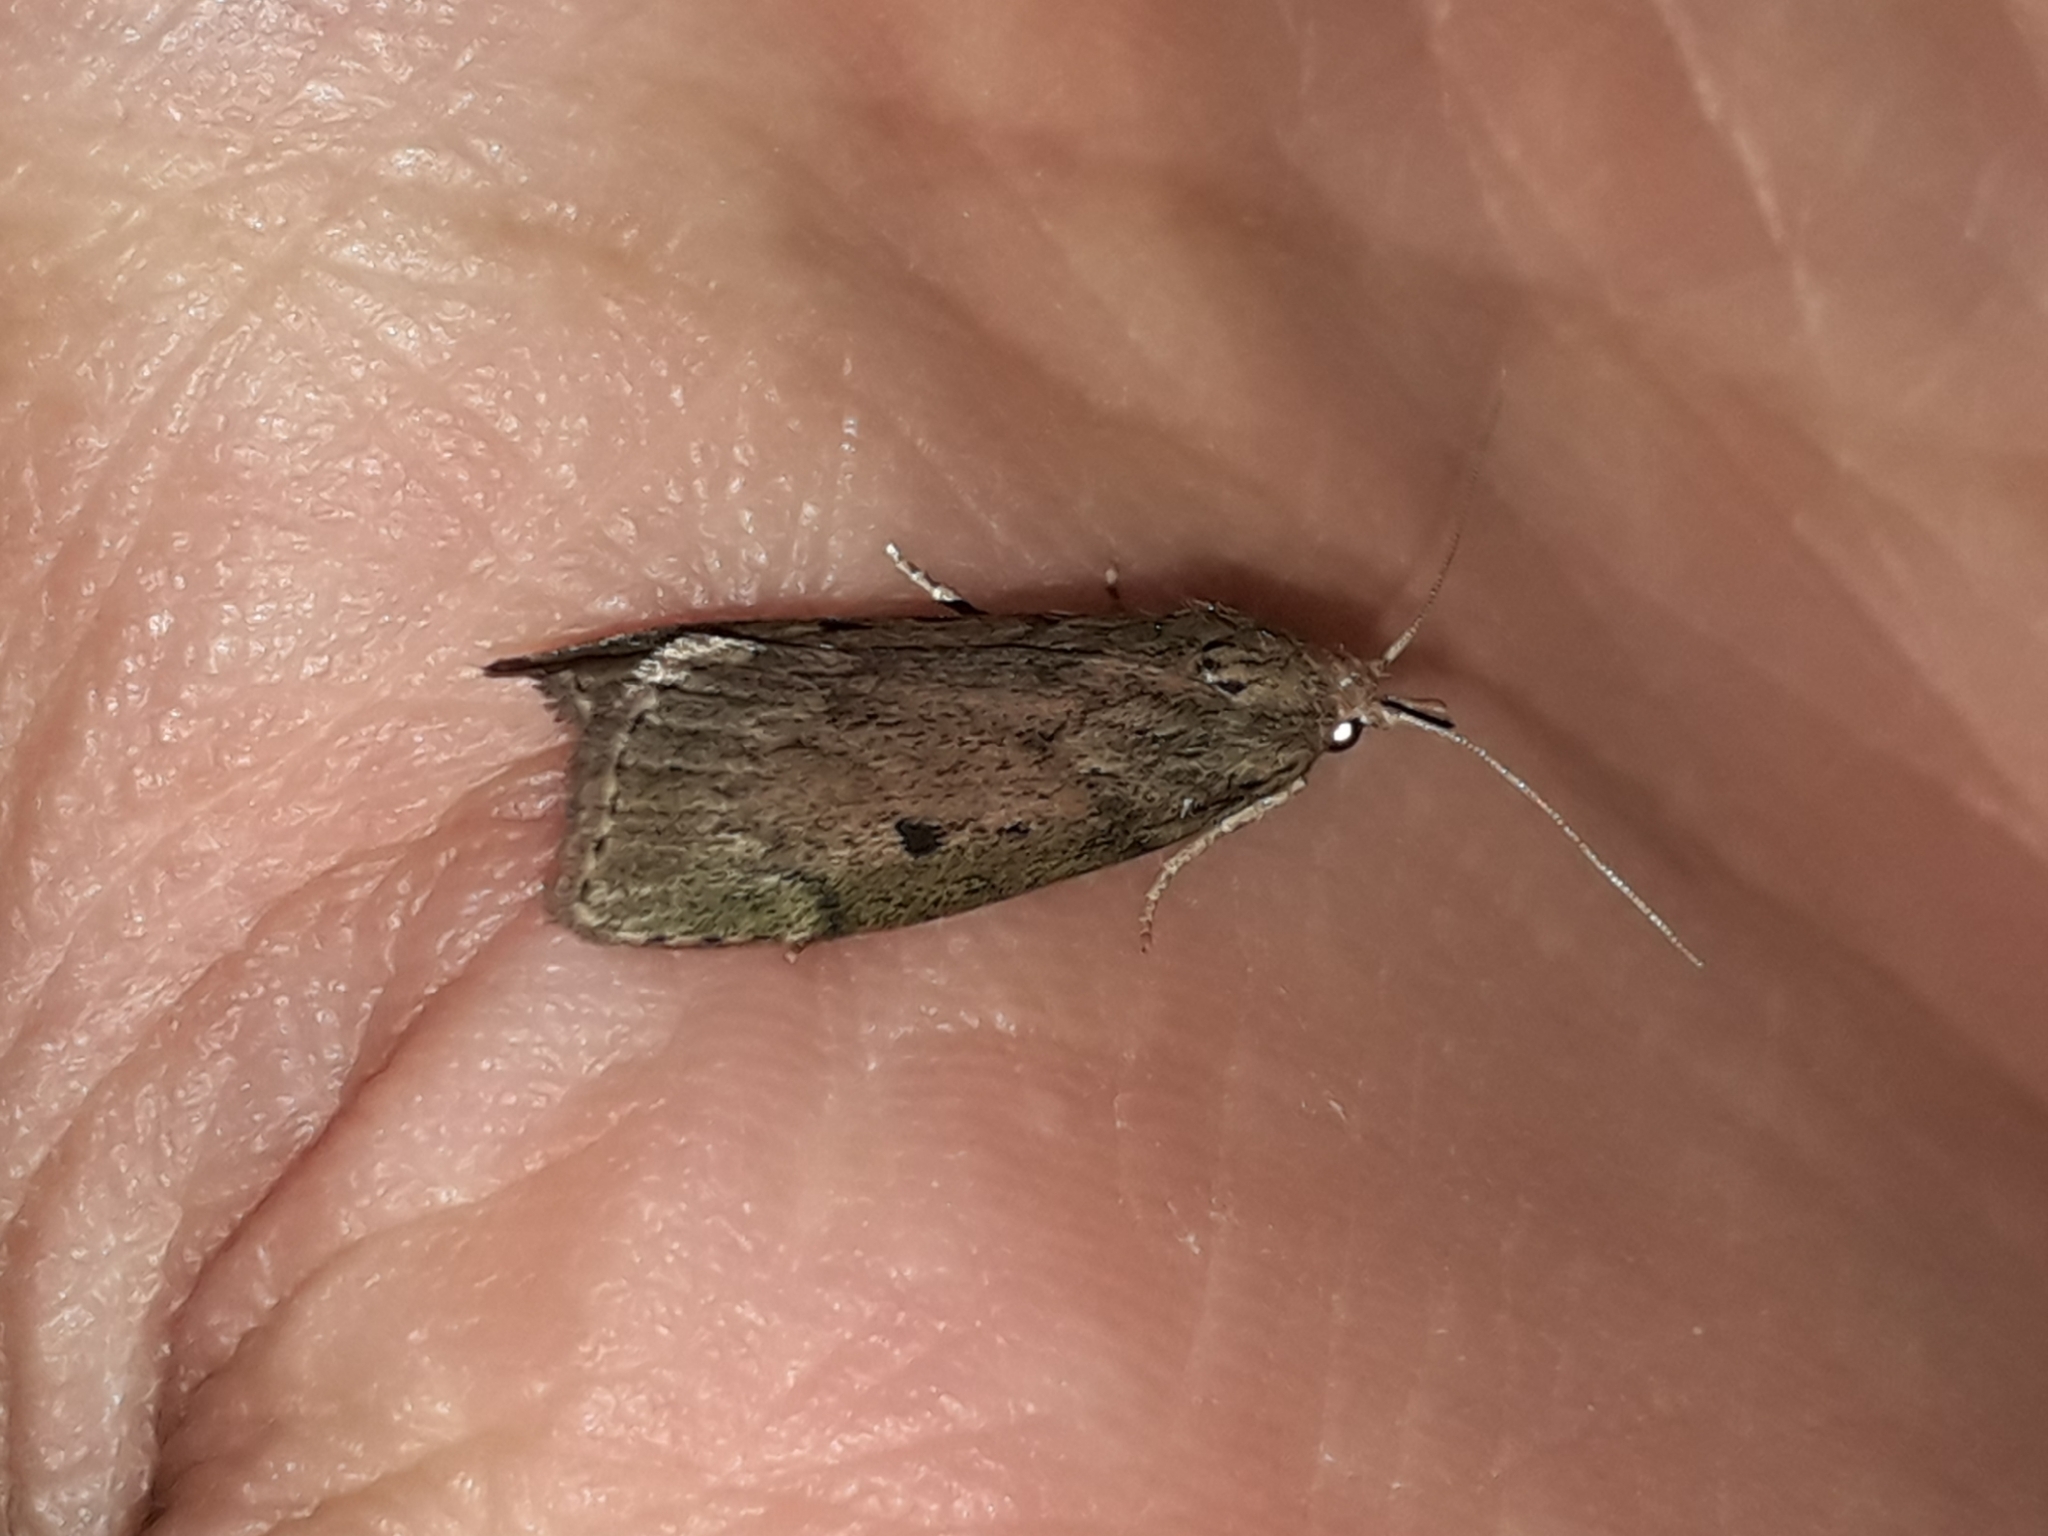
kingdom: Animalia
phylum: Arthropoda
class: Insecta
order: Lepidoptera
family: Pyralidae
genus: Aphomia
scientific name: Aphomia sociella
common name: Bee moth
